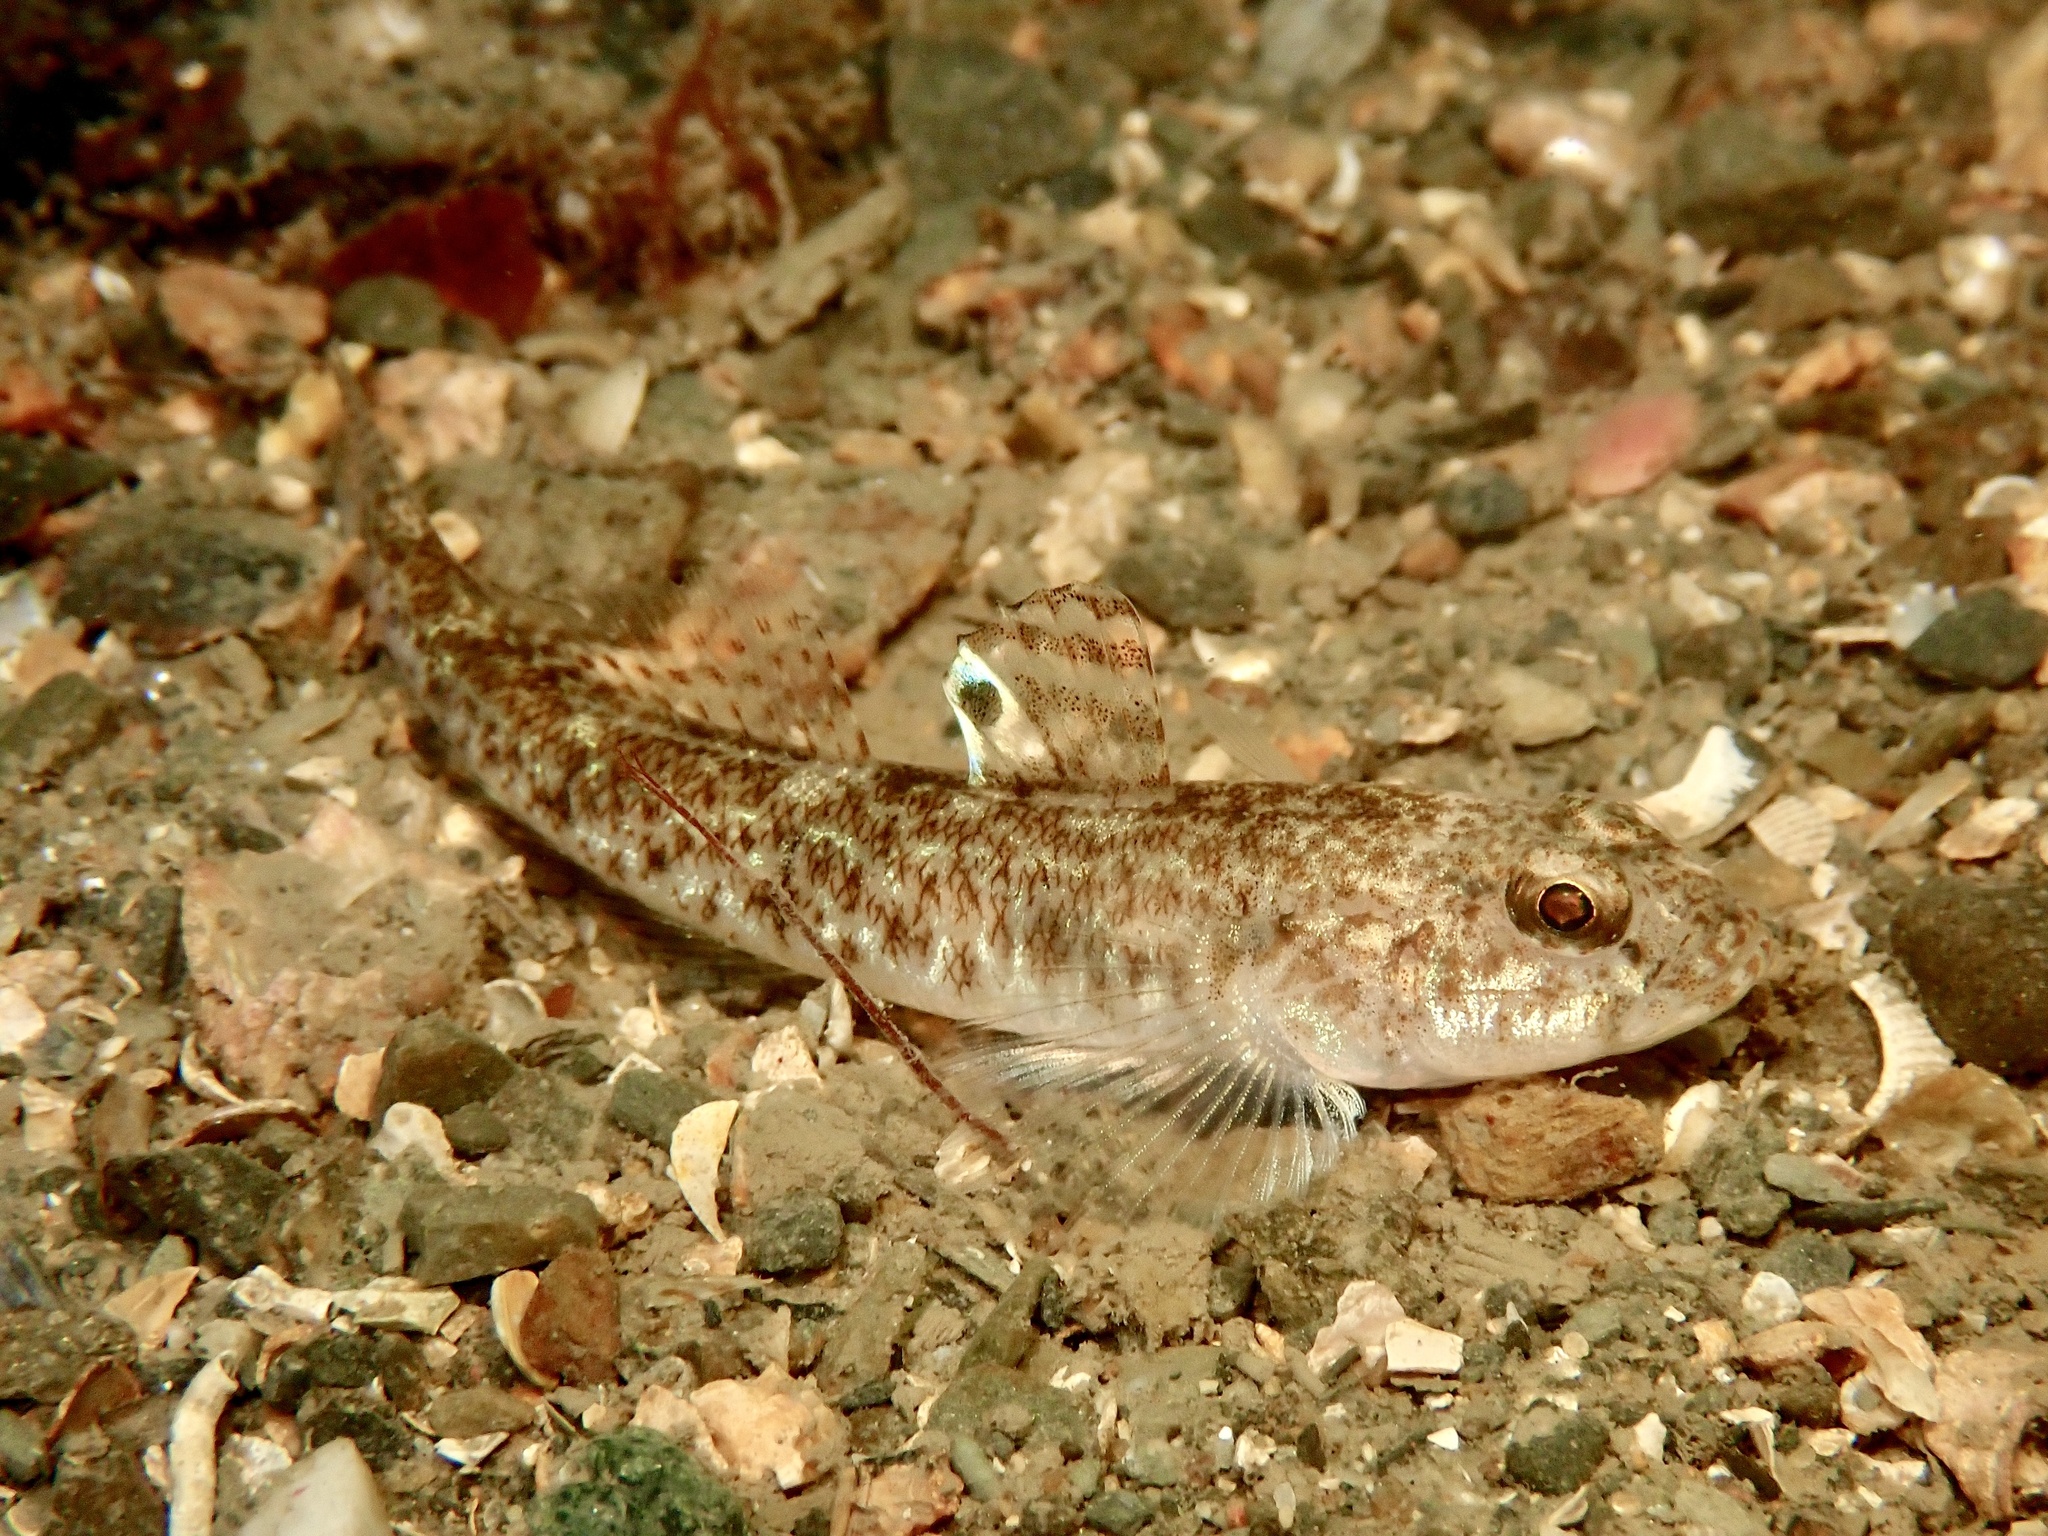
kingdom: Animalia
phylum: Chordata
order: Perciformes
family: Gobiidae
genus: Pomatoschistus
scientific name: Pomatoschistus minutus
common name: Sand goby
